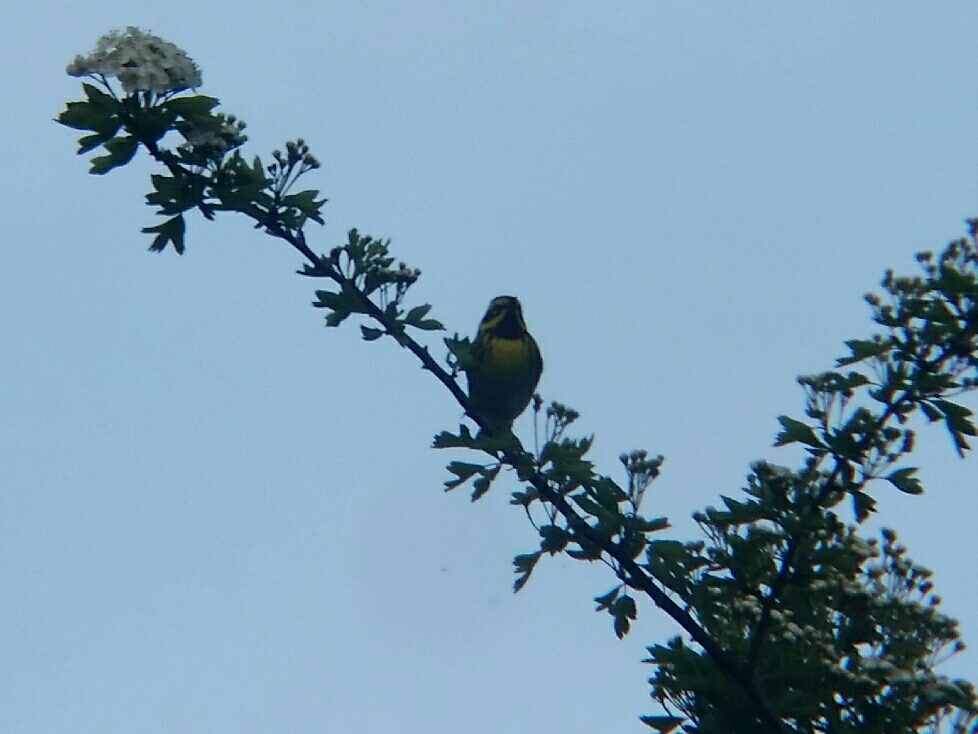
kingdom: Animalia
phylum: Chordata
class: Aves
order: Passeriformes
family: Parulidae
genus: Setophaga
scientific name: Setophaga townsendi
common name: Townsend's warbler
